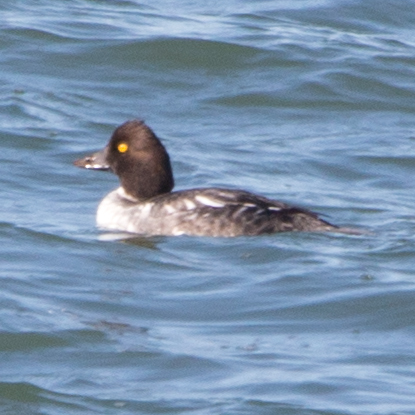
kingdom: Animalia
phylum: Chordata
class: Aves
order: Anseriformes
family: Anatidae
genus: Bucephala
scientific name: Bucephala clangula
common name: Common goldeneye
